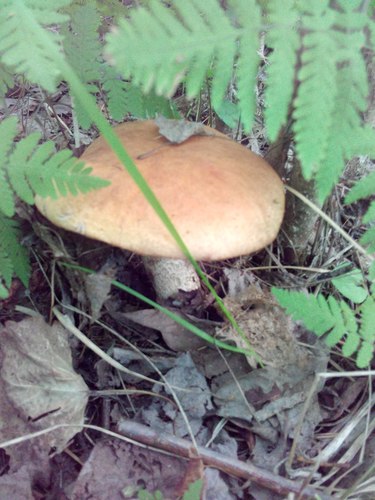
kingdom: Fungi
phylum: Basidiomycota
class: Agaricomycetes
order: Boletales
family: Boletaceae
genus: Leccinum
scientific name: Leccinum
